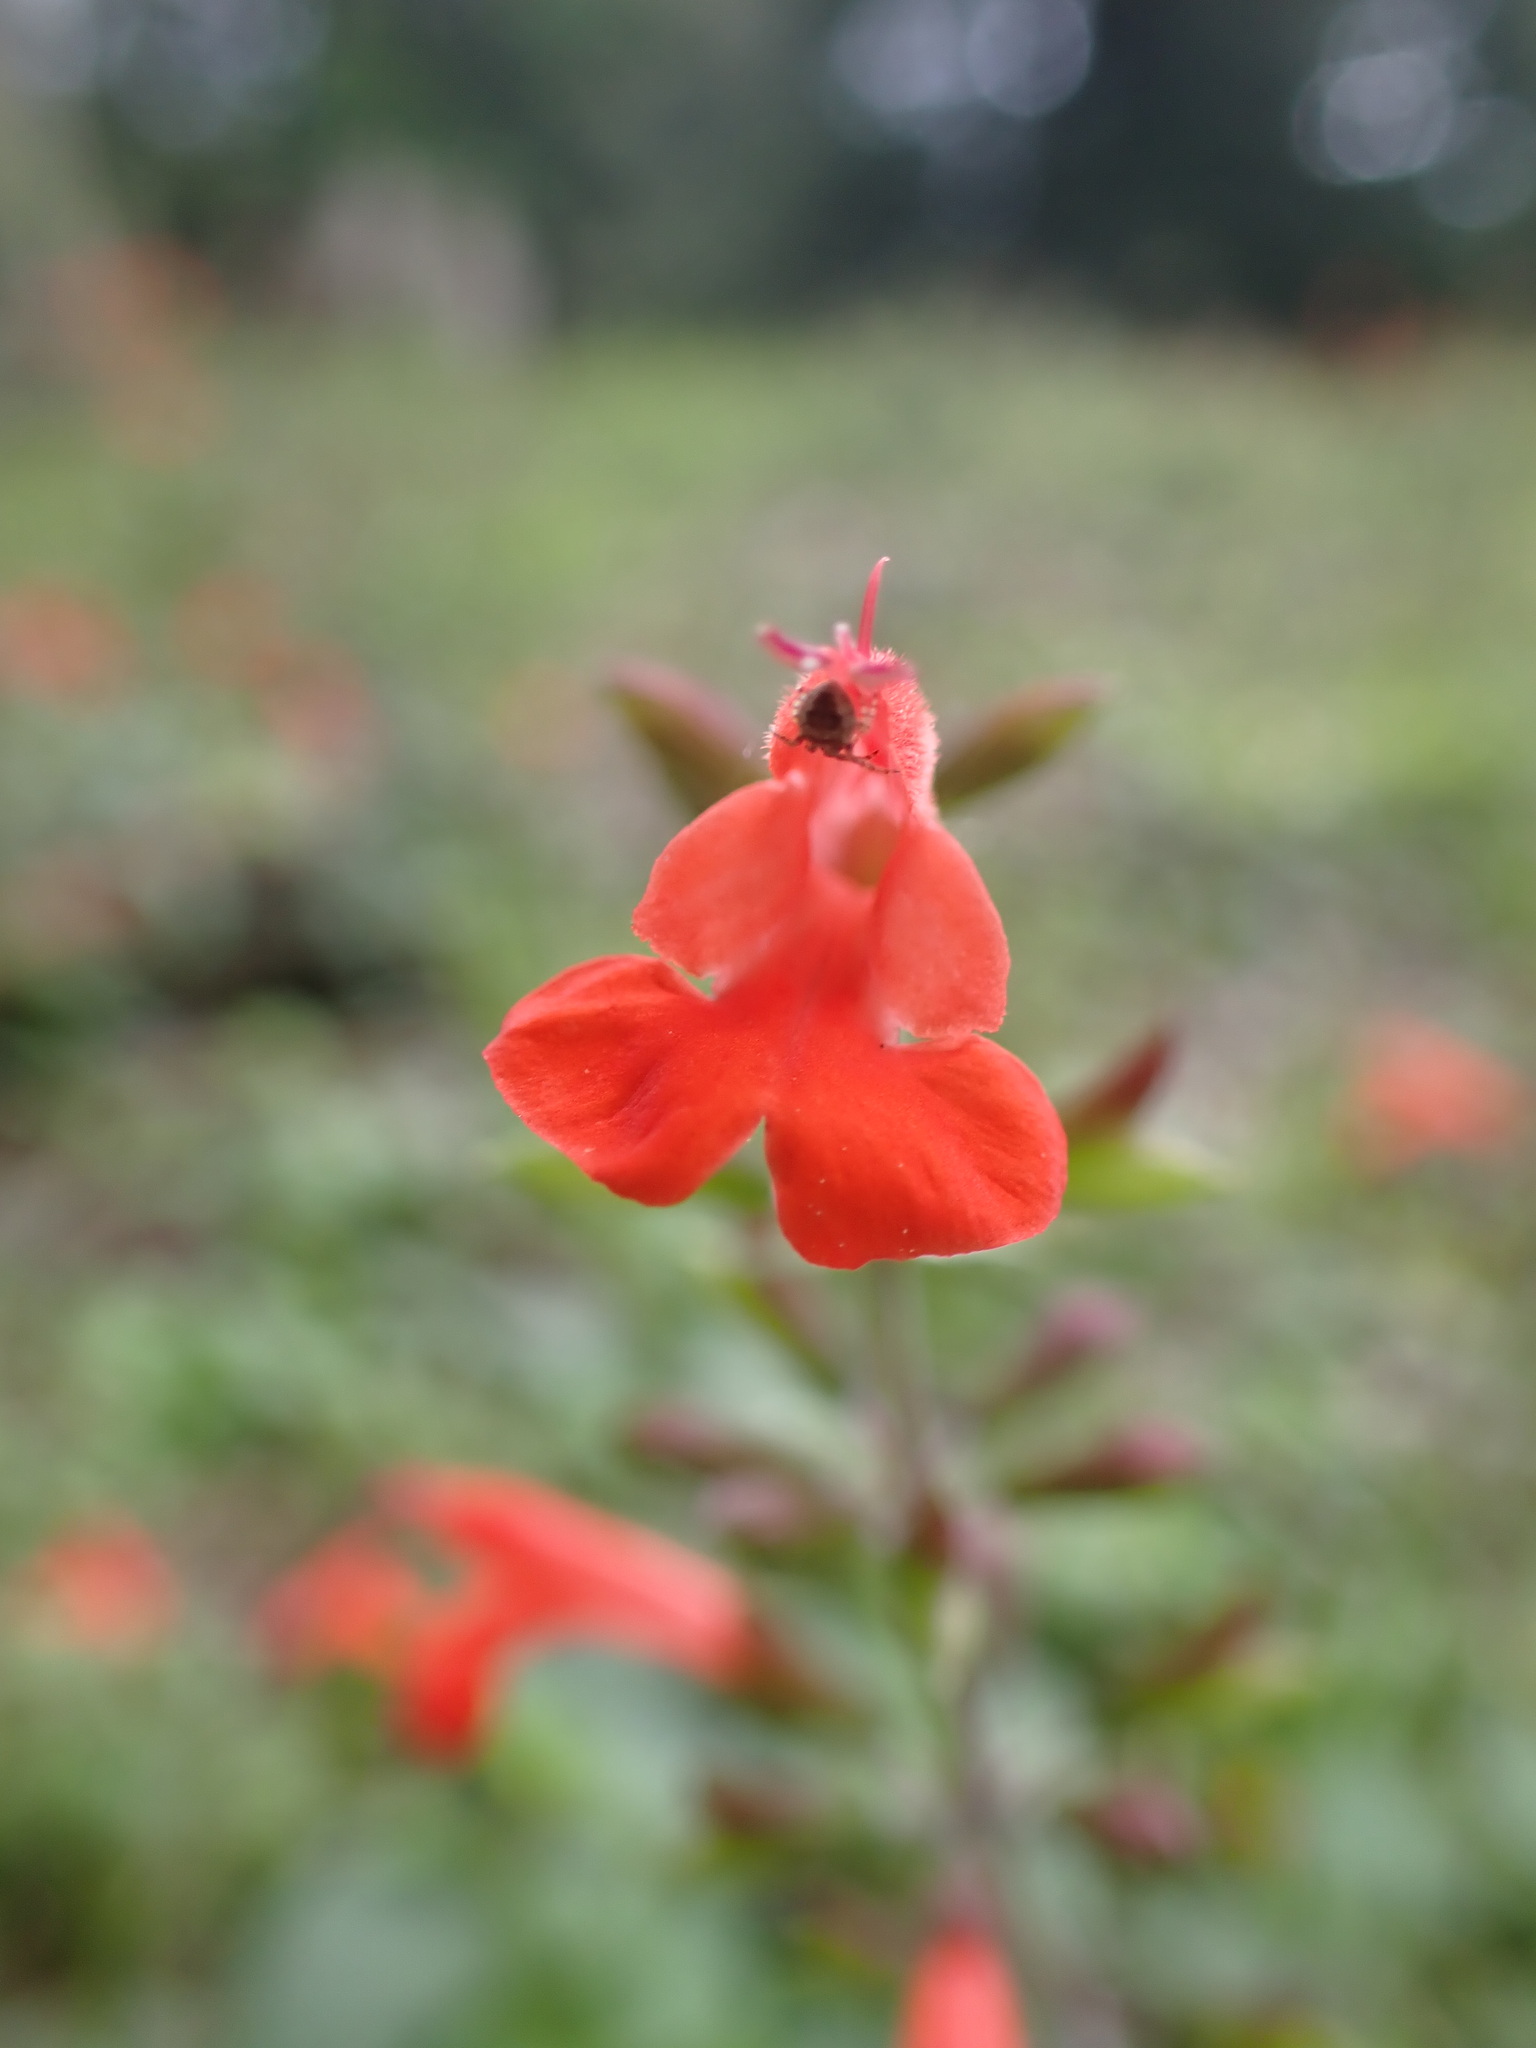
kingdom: Plantae
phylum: Tracheophyta
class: Magnoliopsida
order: Lamiales
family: Lamiaceae
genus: Salvia
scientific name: Salvia coccinea
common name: Blood sage
